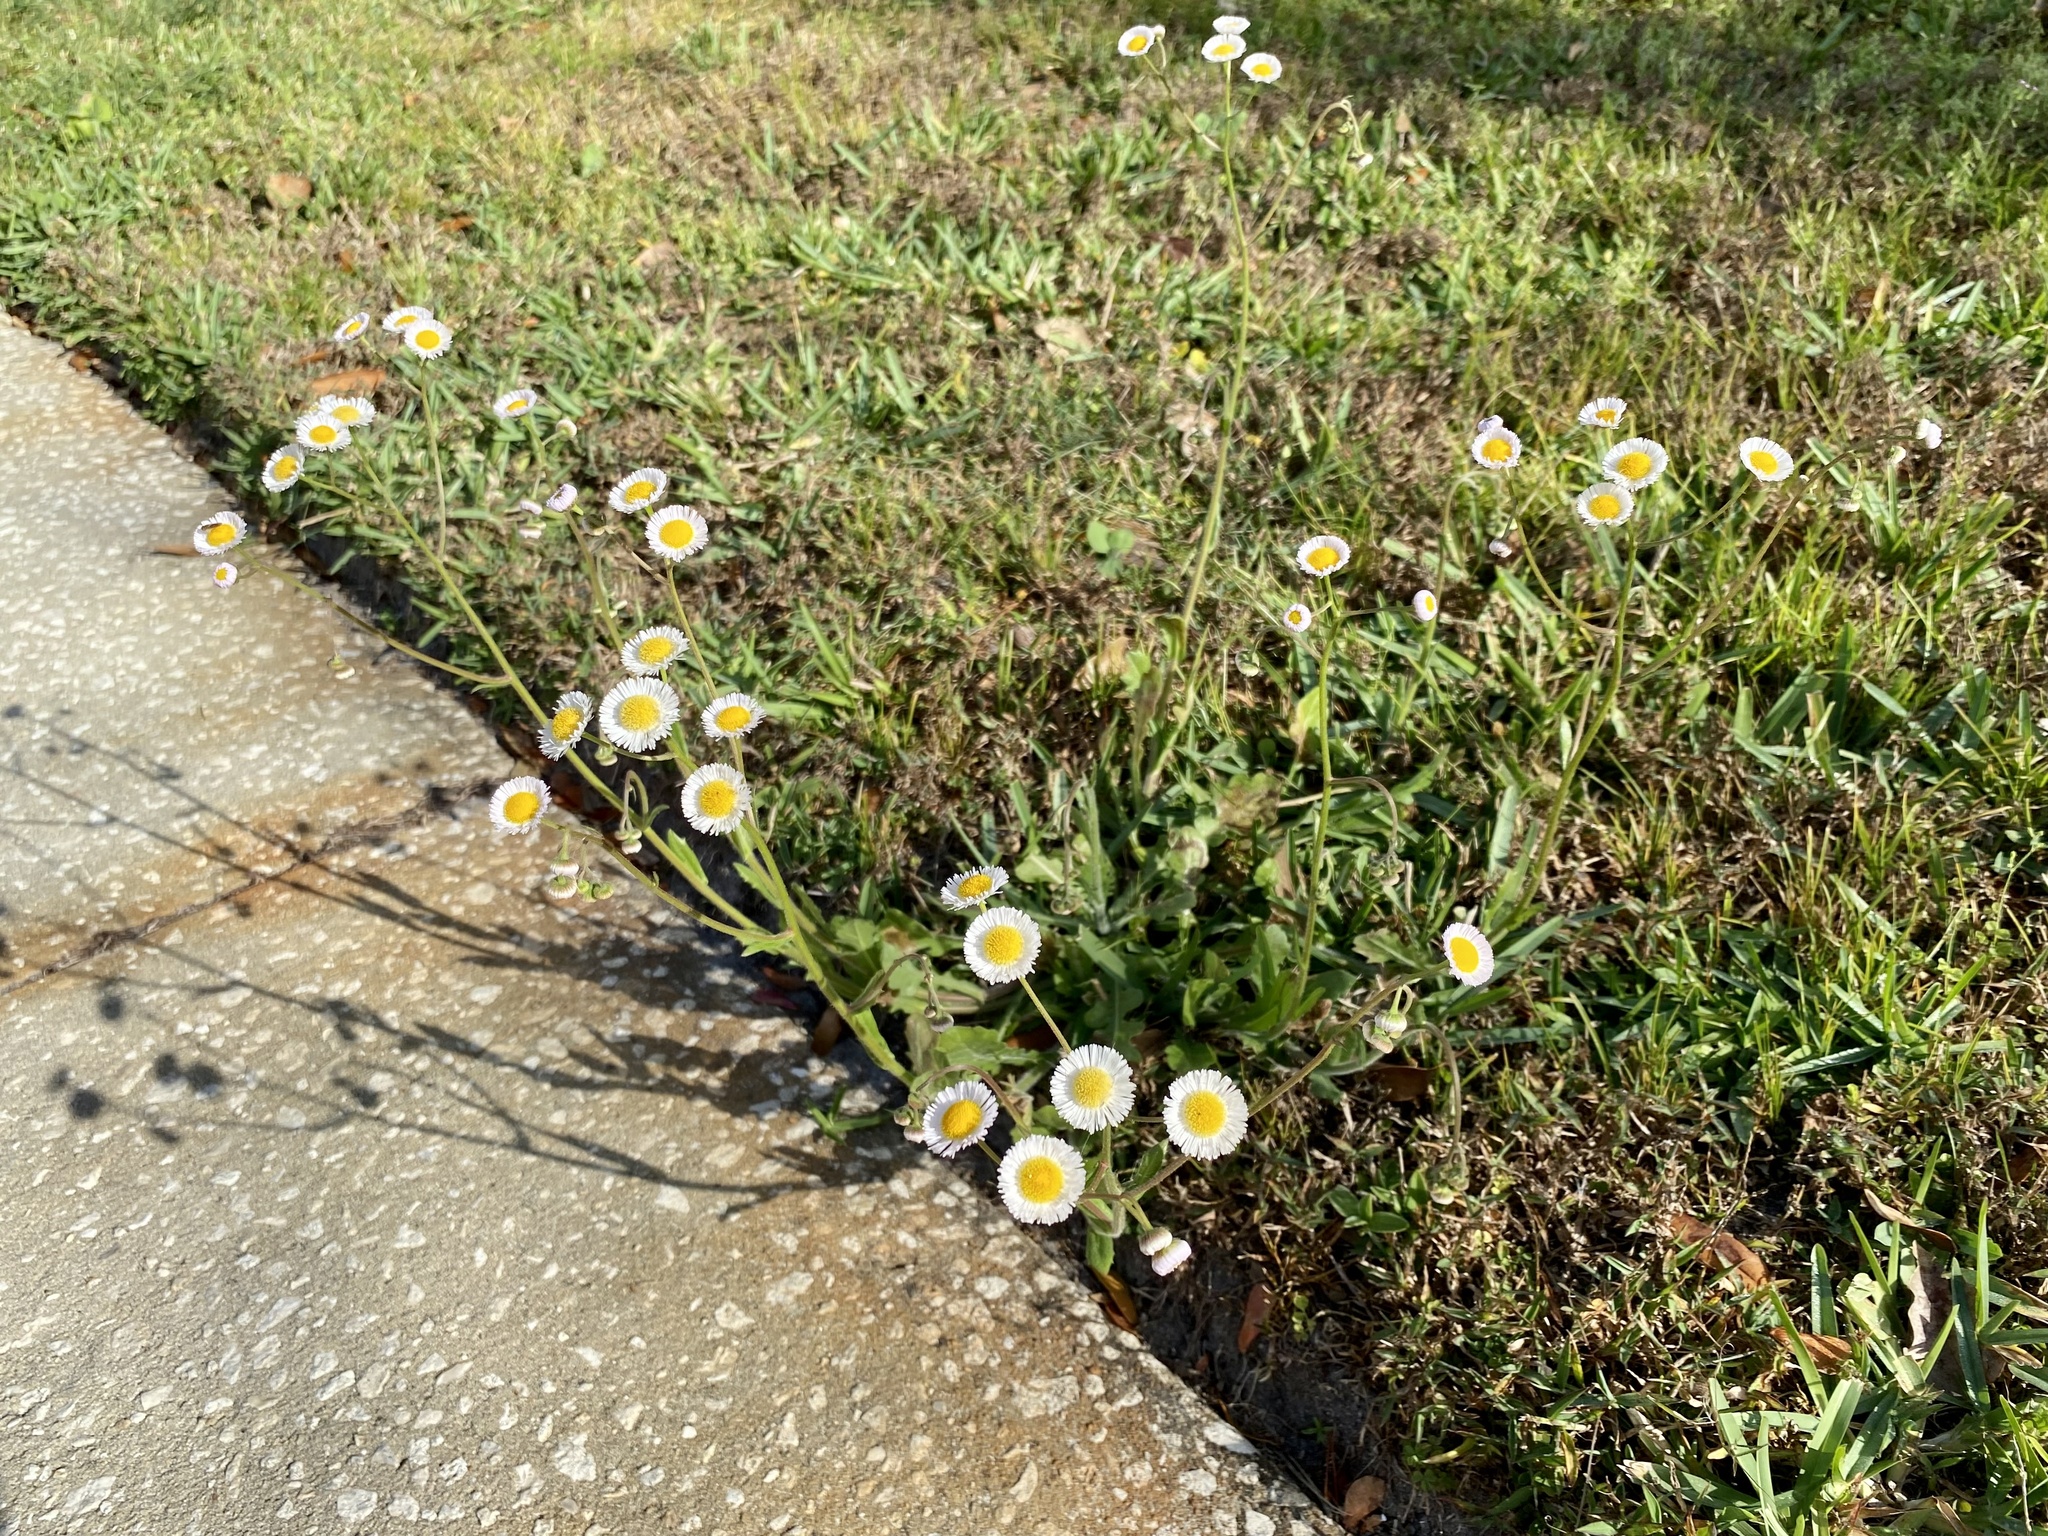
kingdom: Plantae
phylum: Tracheophyta
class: Magnoliopsida
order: Asterales
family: Asteraceae
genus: Erigeron
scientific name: Erigeron quercifolius
